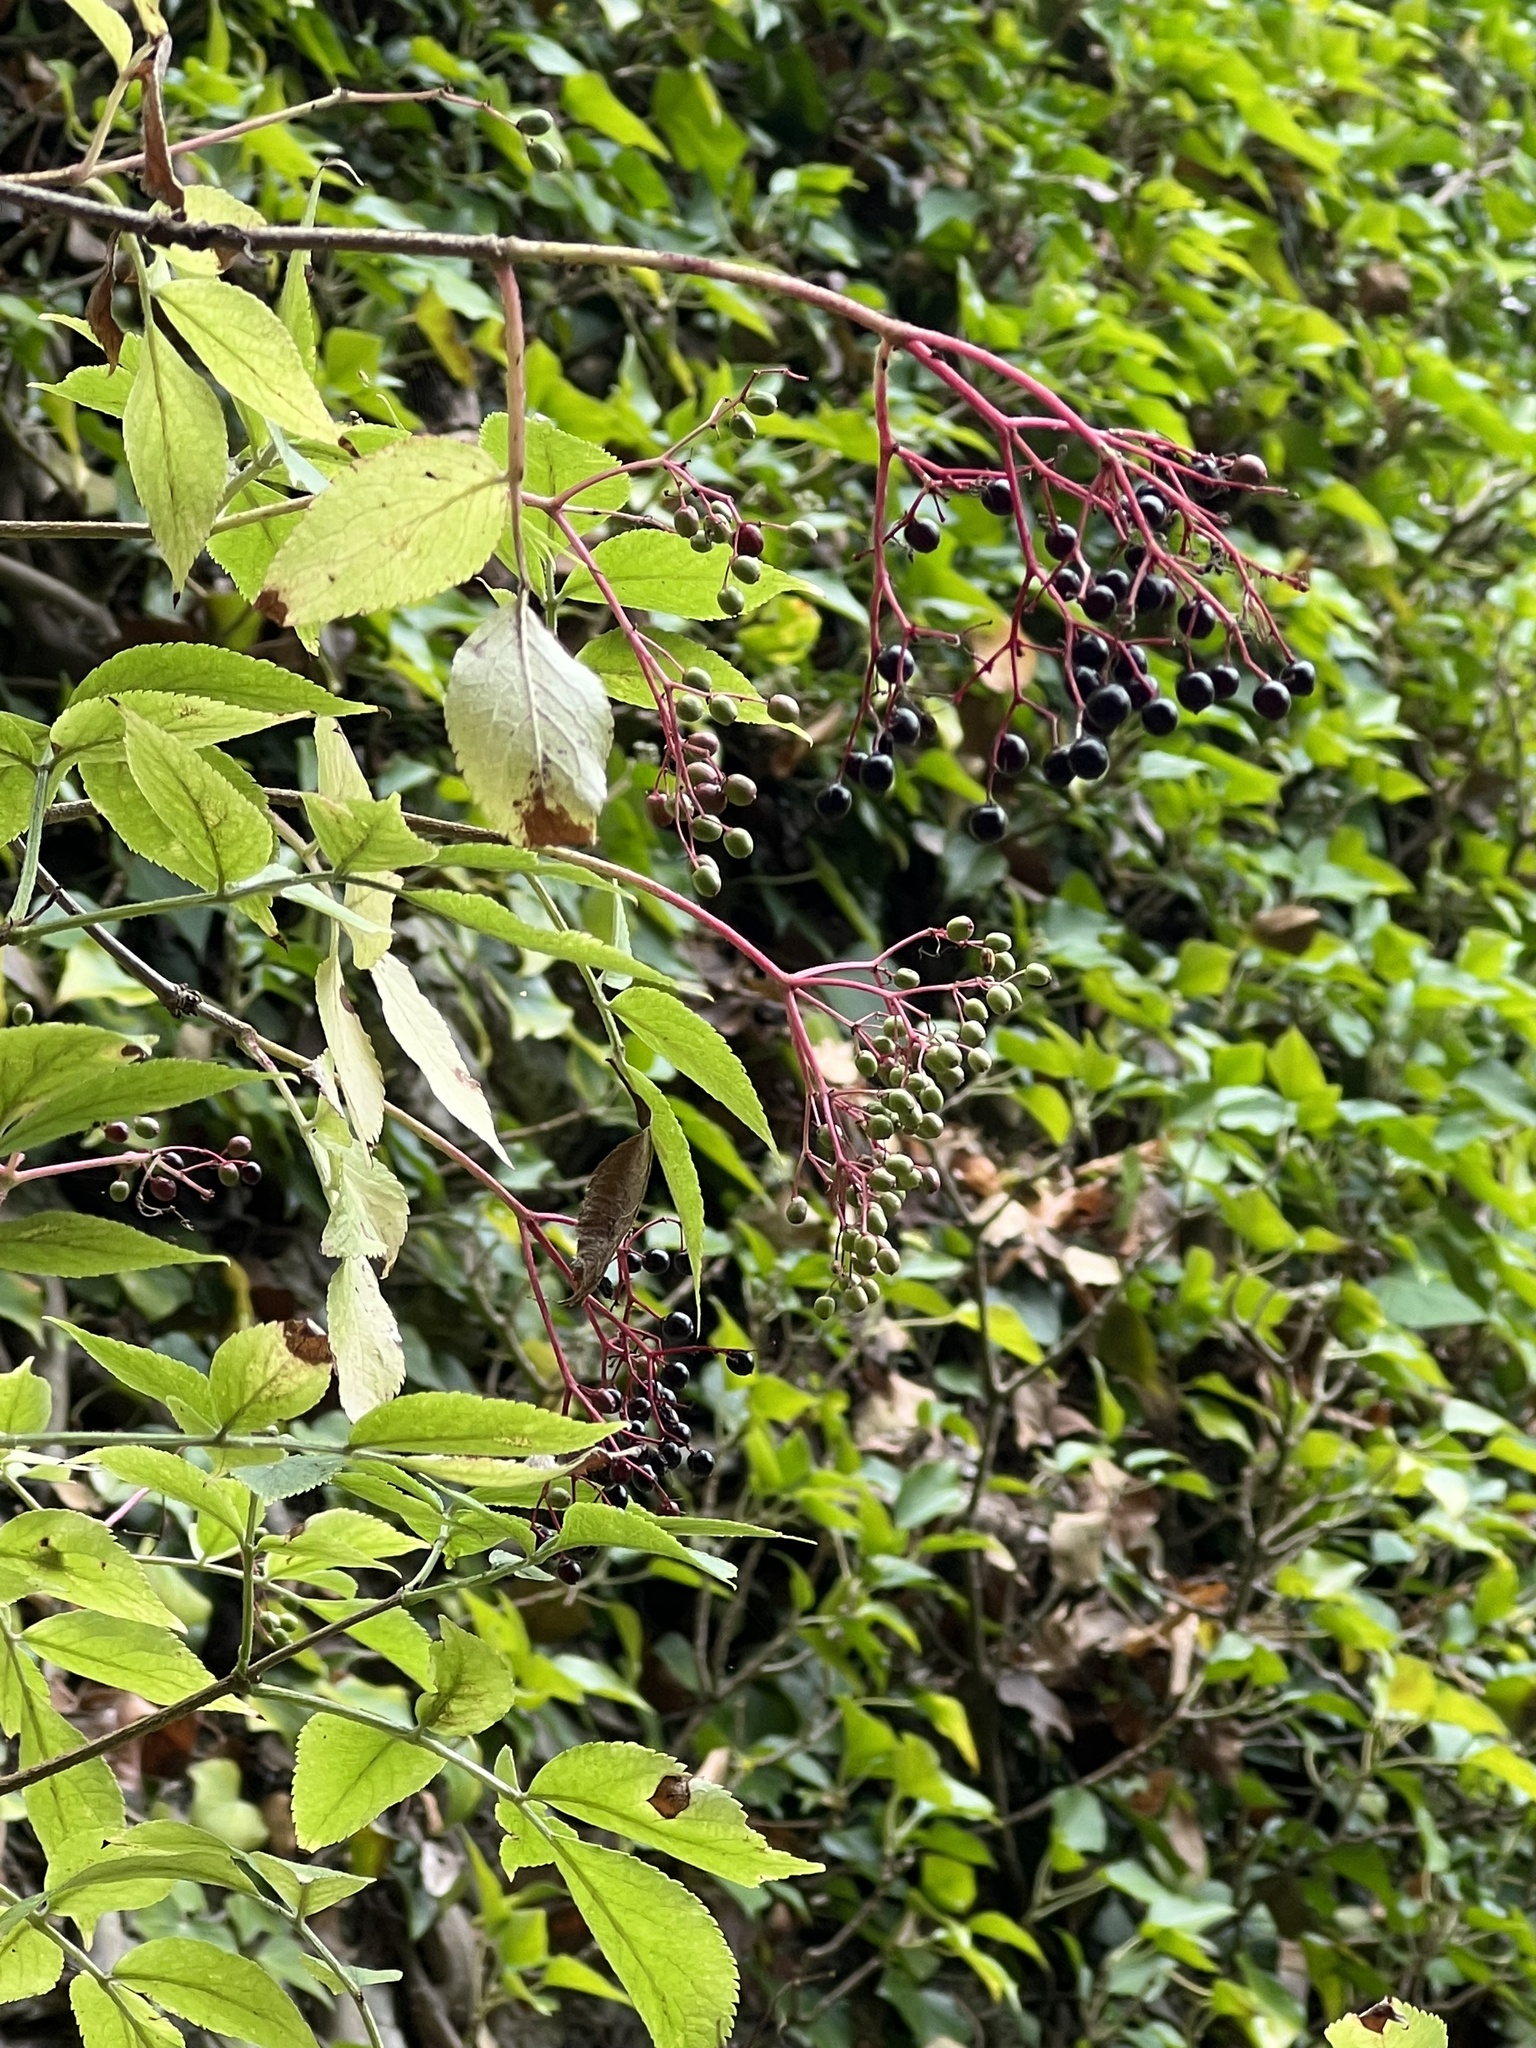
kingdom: Plantae
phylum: Tracheophyta
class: Magnoliopsida
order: Dipsacales
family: Viburnaceae
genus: Sambucus
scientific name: Sambucus nigra
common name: Elder
